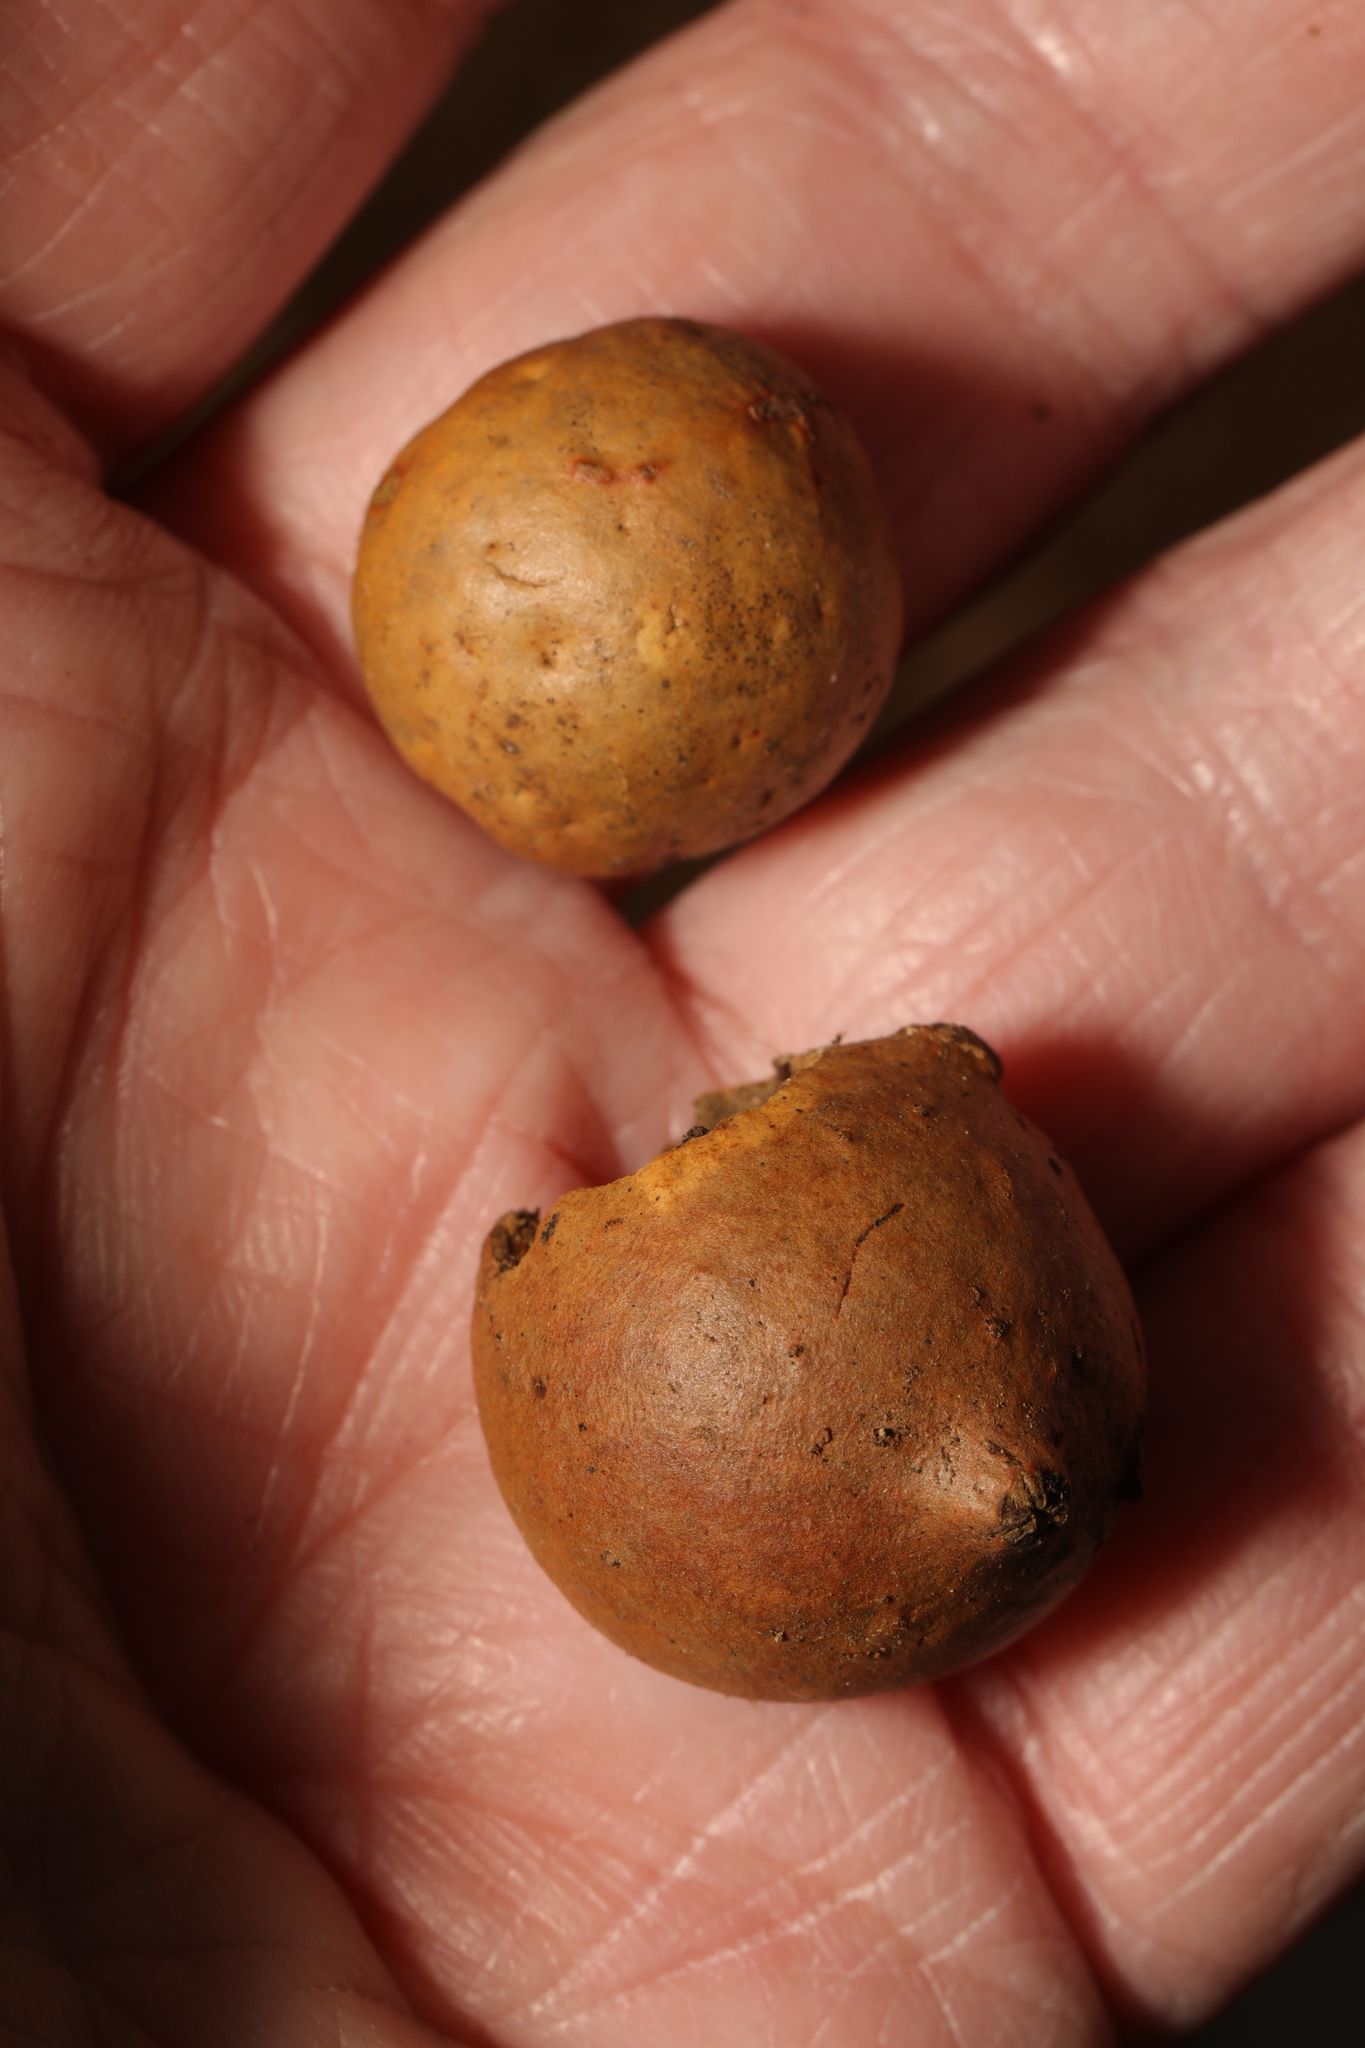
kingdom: Animalia
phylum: Arthropoda
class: Insecta
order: Hymenoptera
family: Cynipidae
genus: Andricus
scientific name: Andricus kollari
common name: Marble gall
